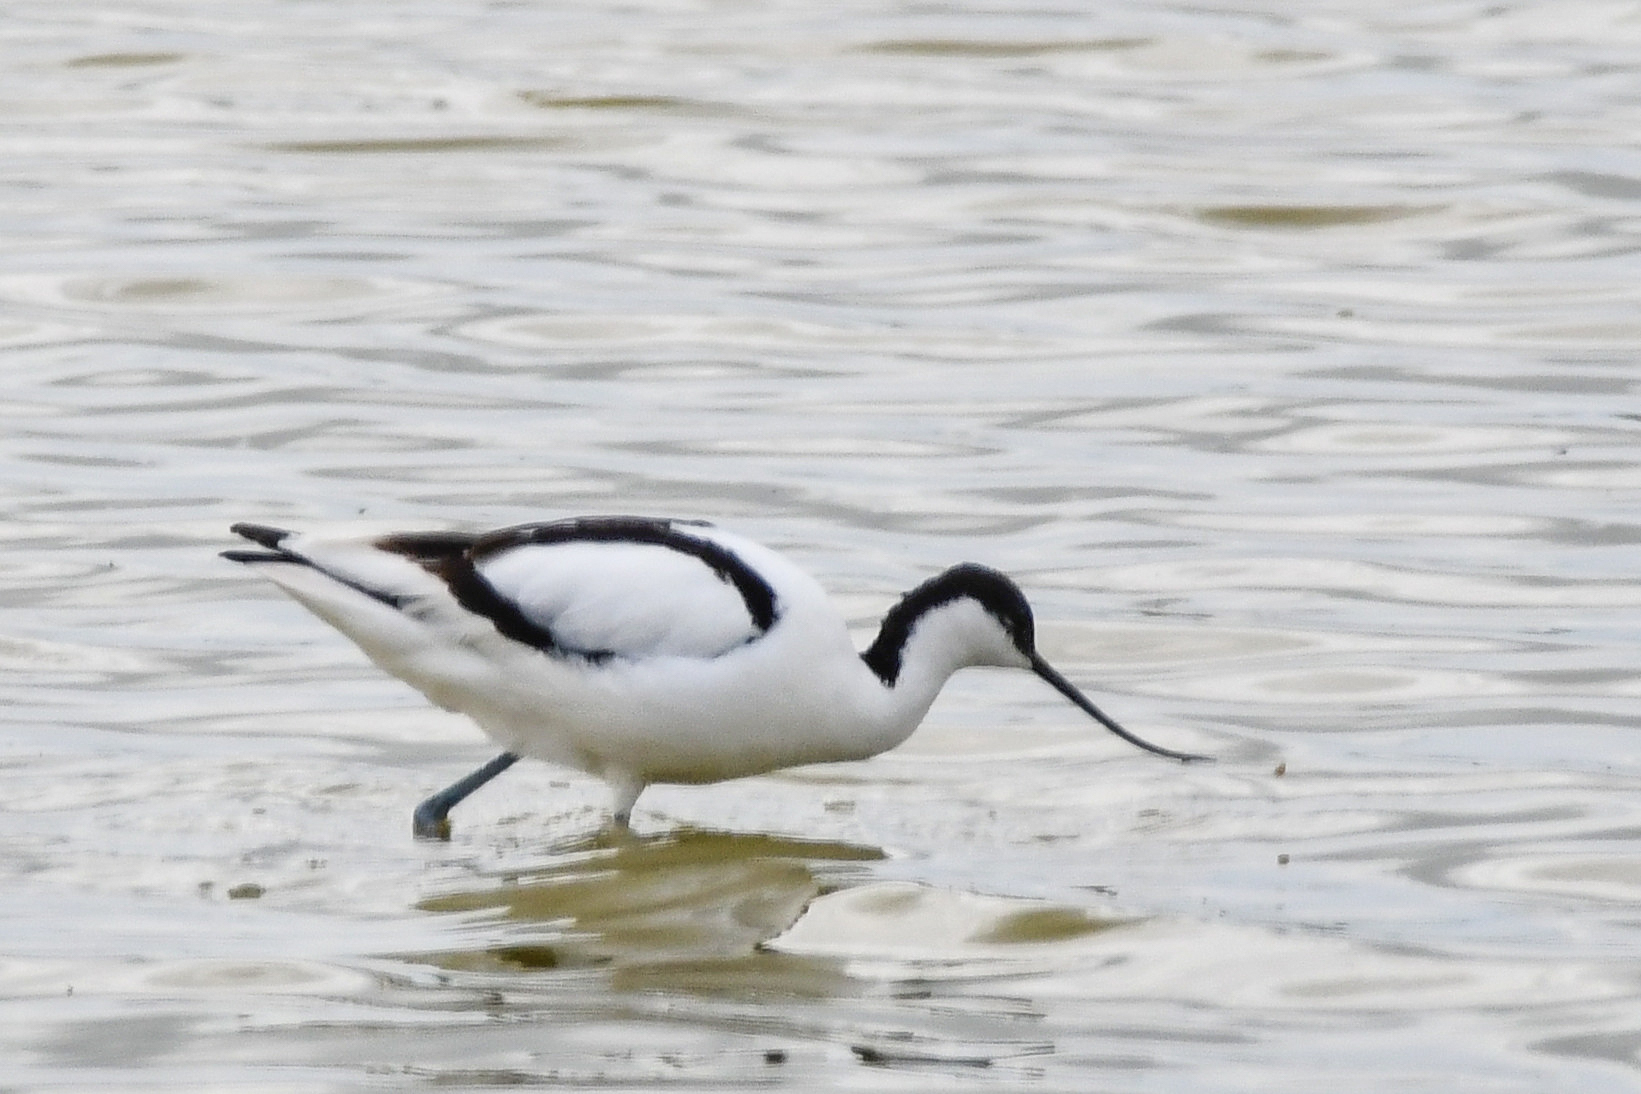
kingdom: Animalia
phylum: Chordata
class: Aves
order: Charadriiformes
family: Recurvirostridae
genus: Recurvirostra
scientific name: Recurvirostra avosetta
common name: Pied avocet
